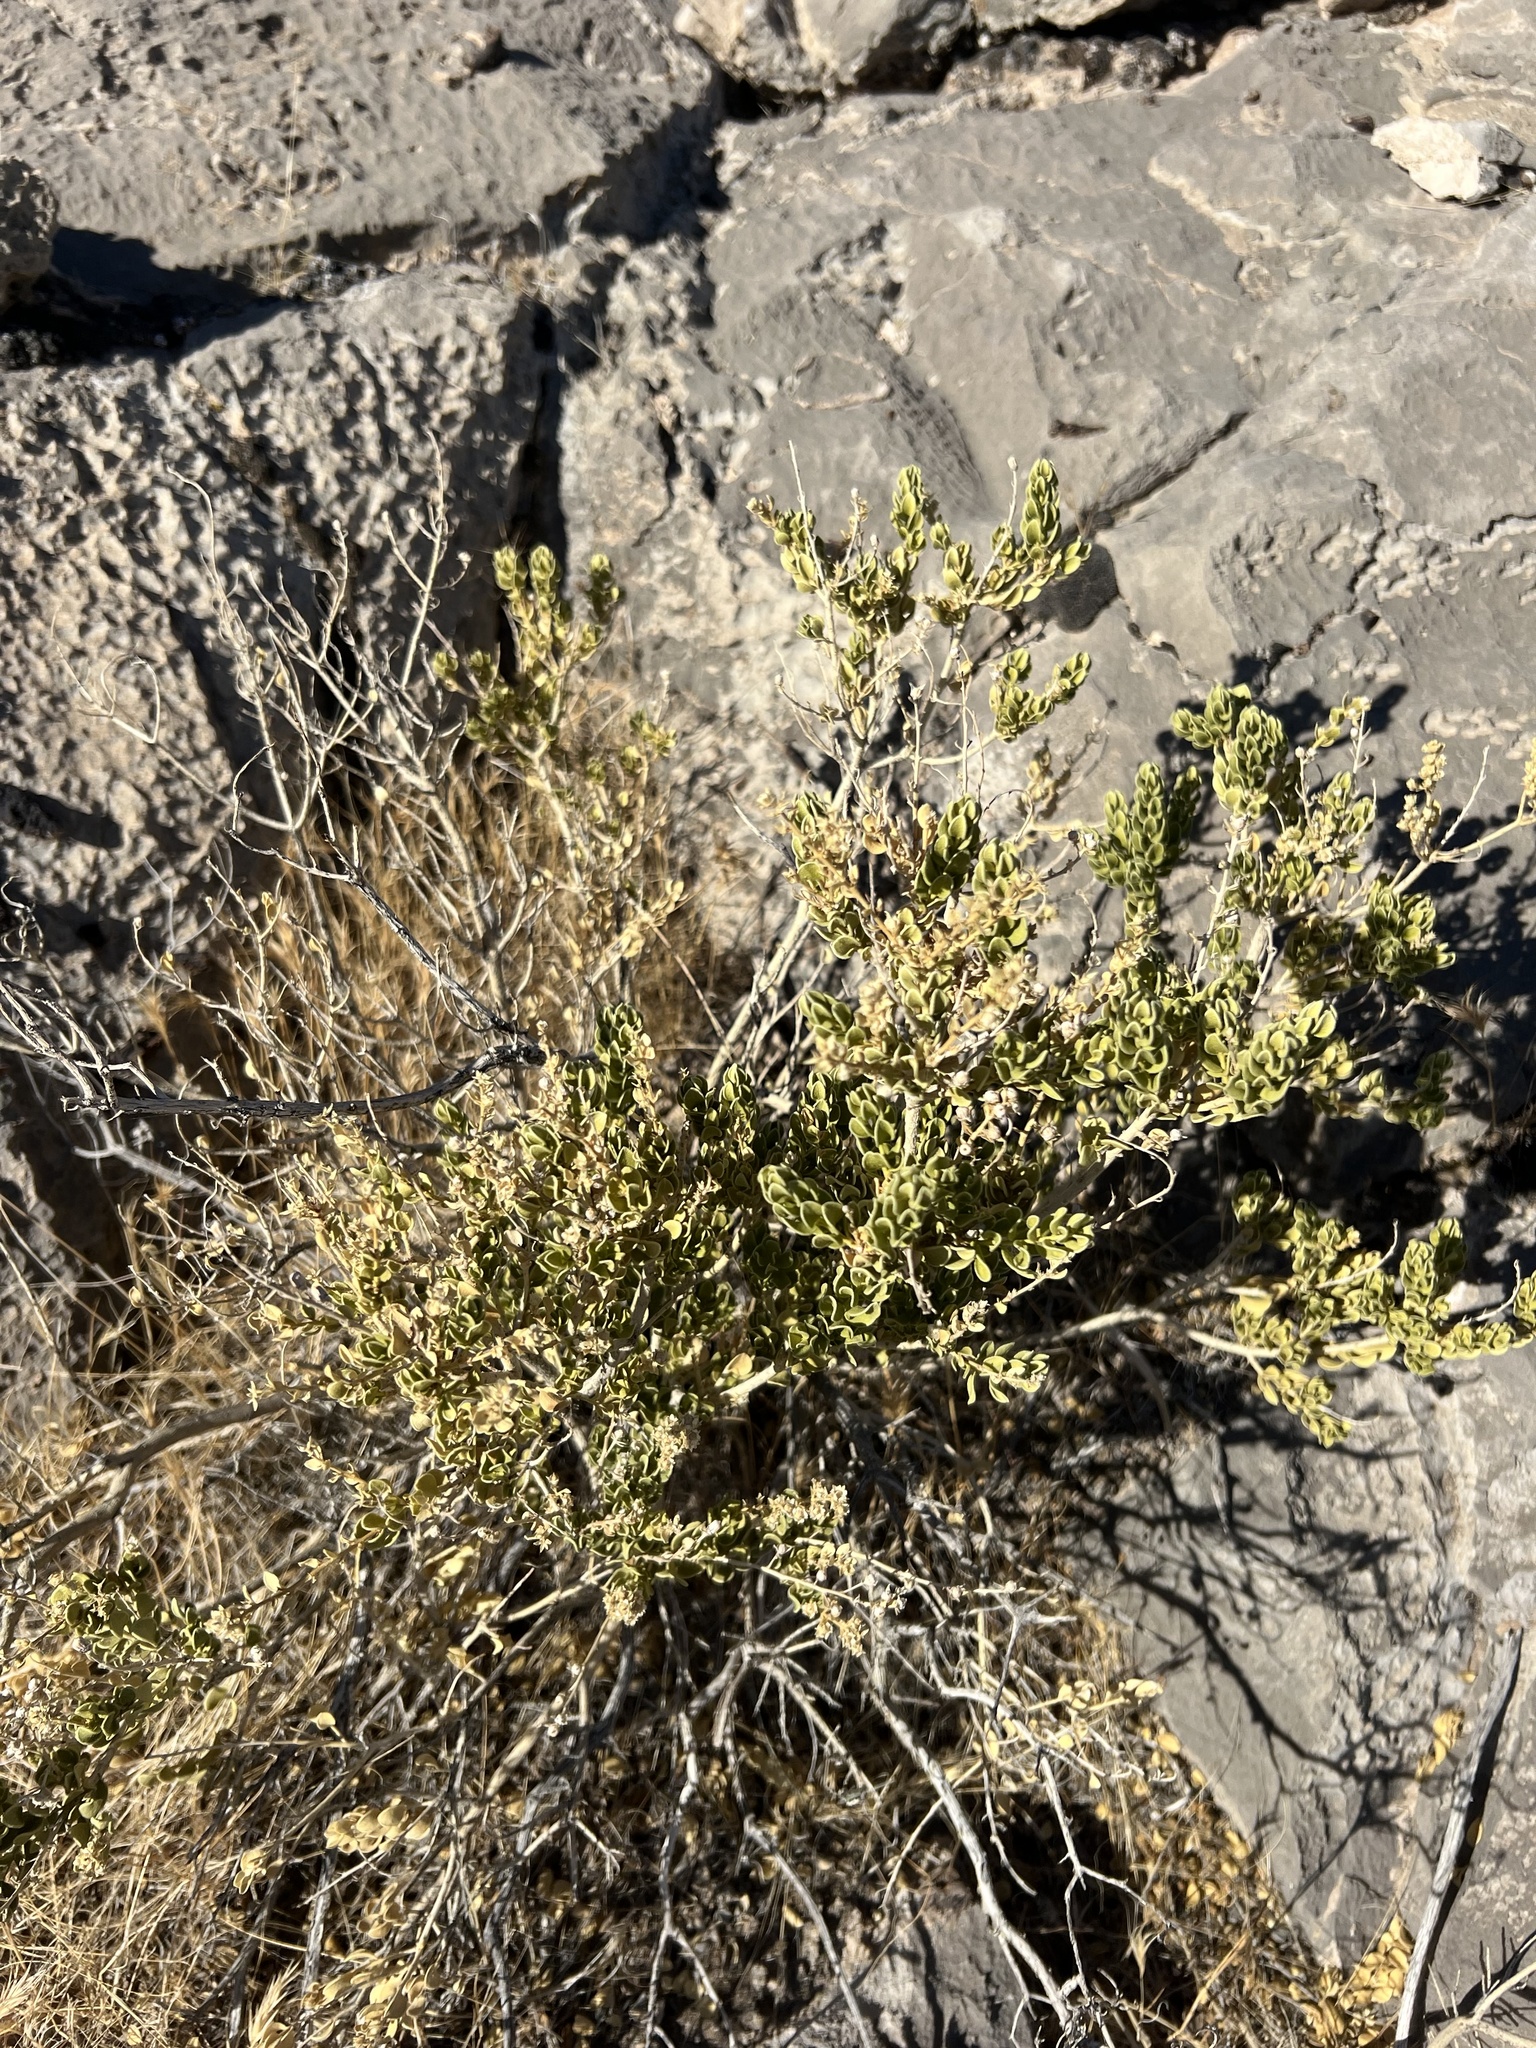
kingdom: Plantae
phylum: Tracheophyta
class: Magnoliopsida
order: Celastrales
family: Celastraceae
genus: Mortonia
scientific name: Mortonia utahensis
